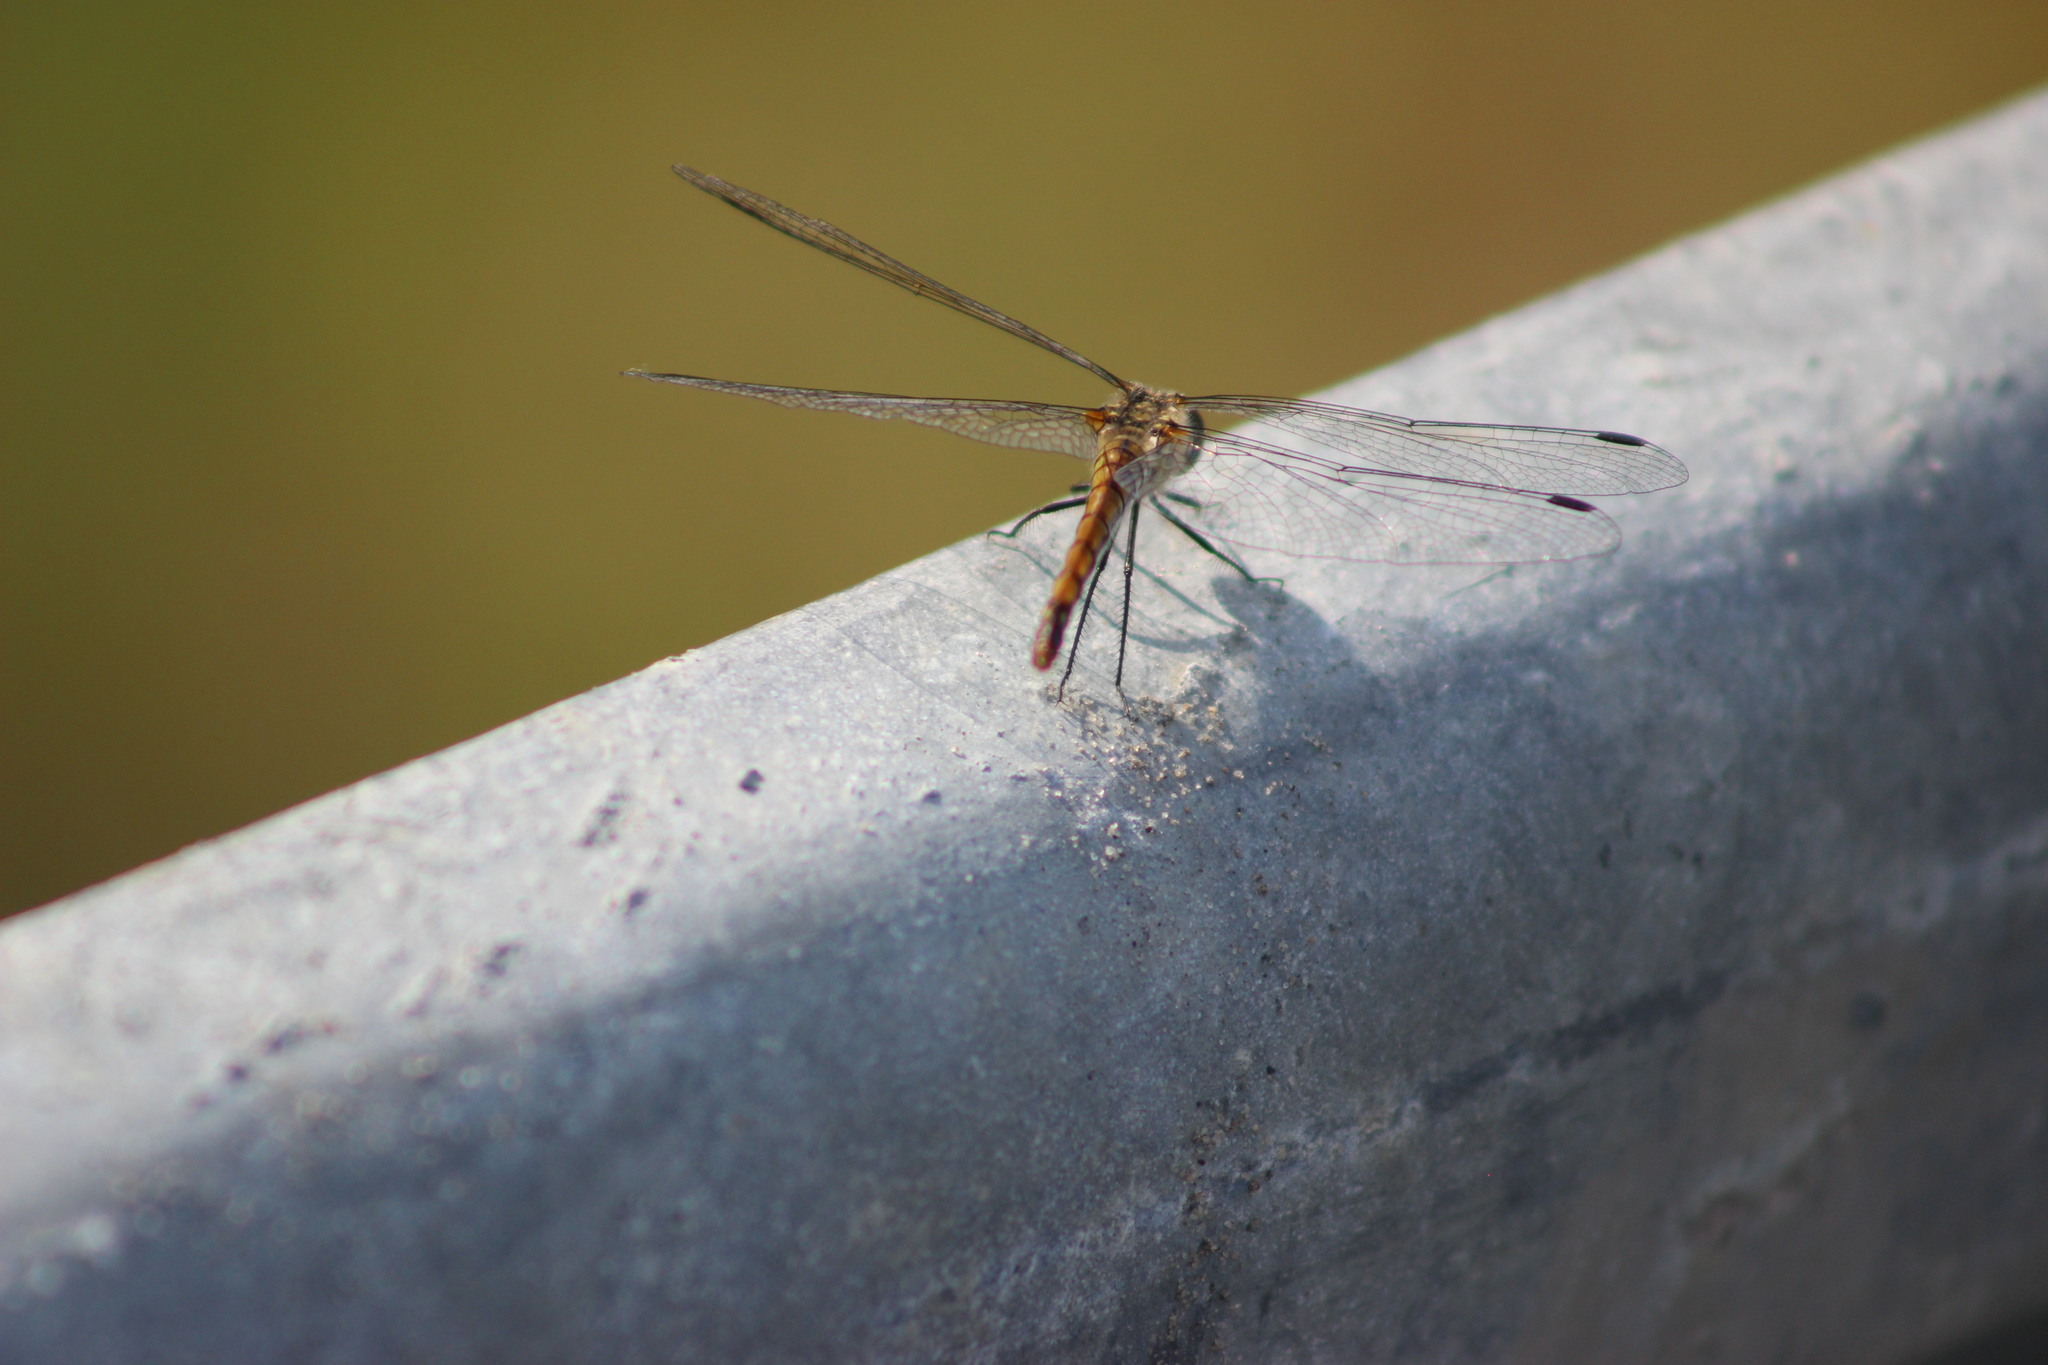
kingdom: Animalia
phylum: Arthropoda
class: Insecta
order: Odonata
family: Libellulidae
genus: Sympetrum
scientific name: Sympetrum danae
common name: Black darter
